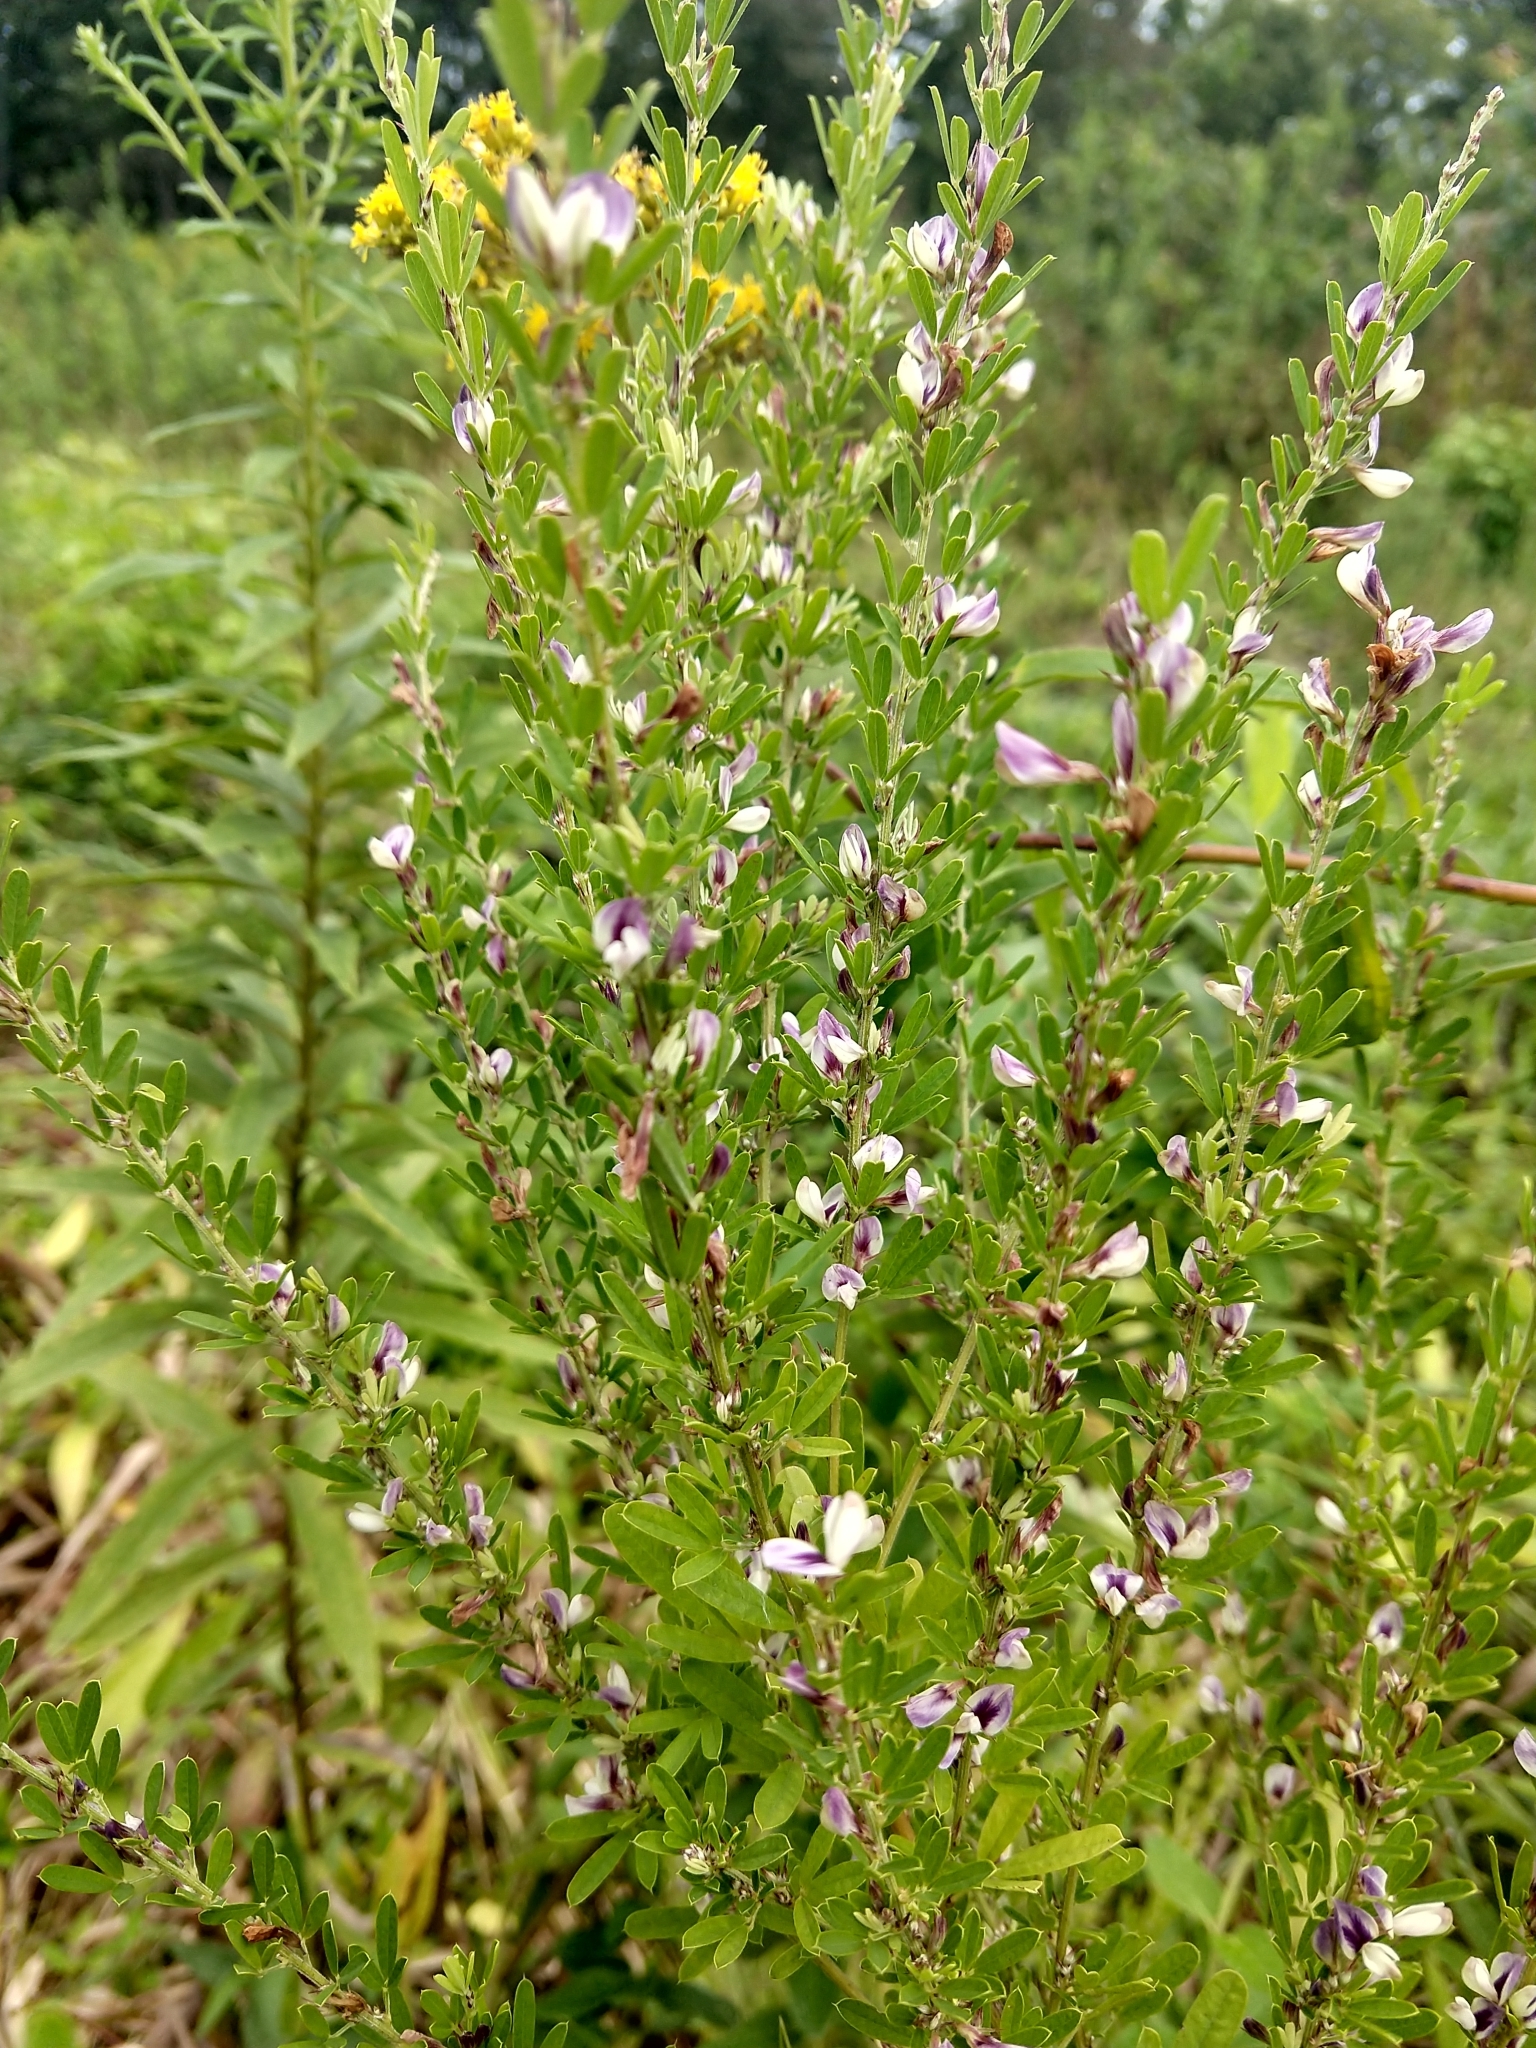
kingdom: Plantae
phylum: Tracheophyta
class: Magnoliopsida
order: Fabales
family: Fabaceae
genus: Lespedeza
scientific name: Lespedeza cuneata
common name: Chinese bush-clover
